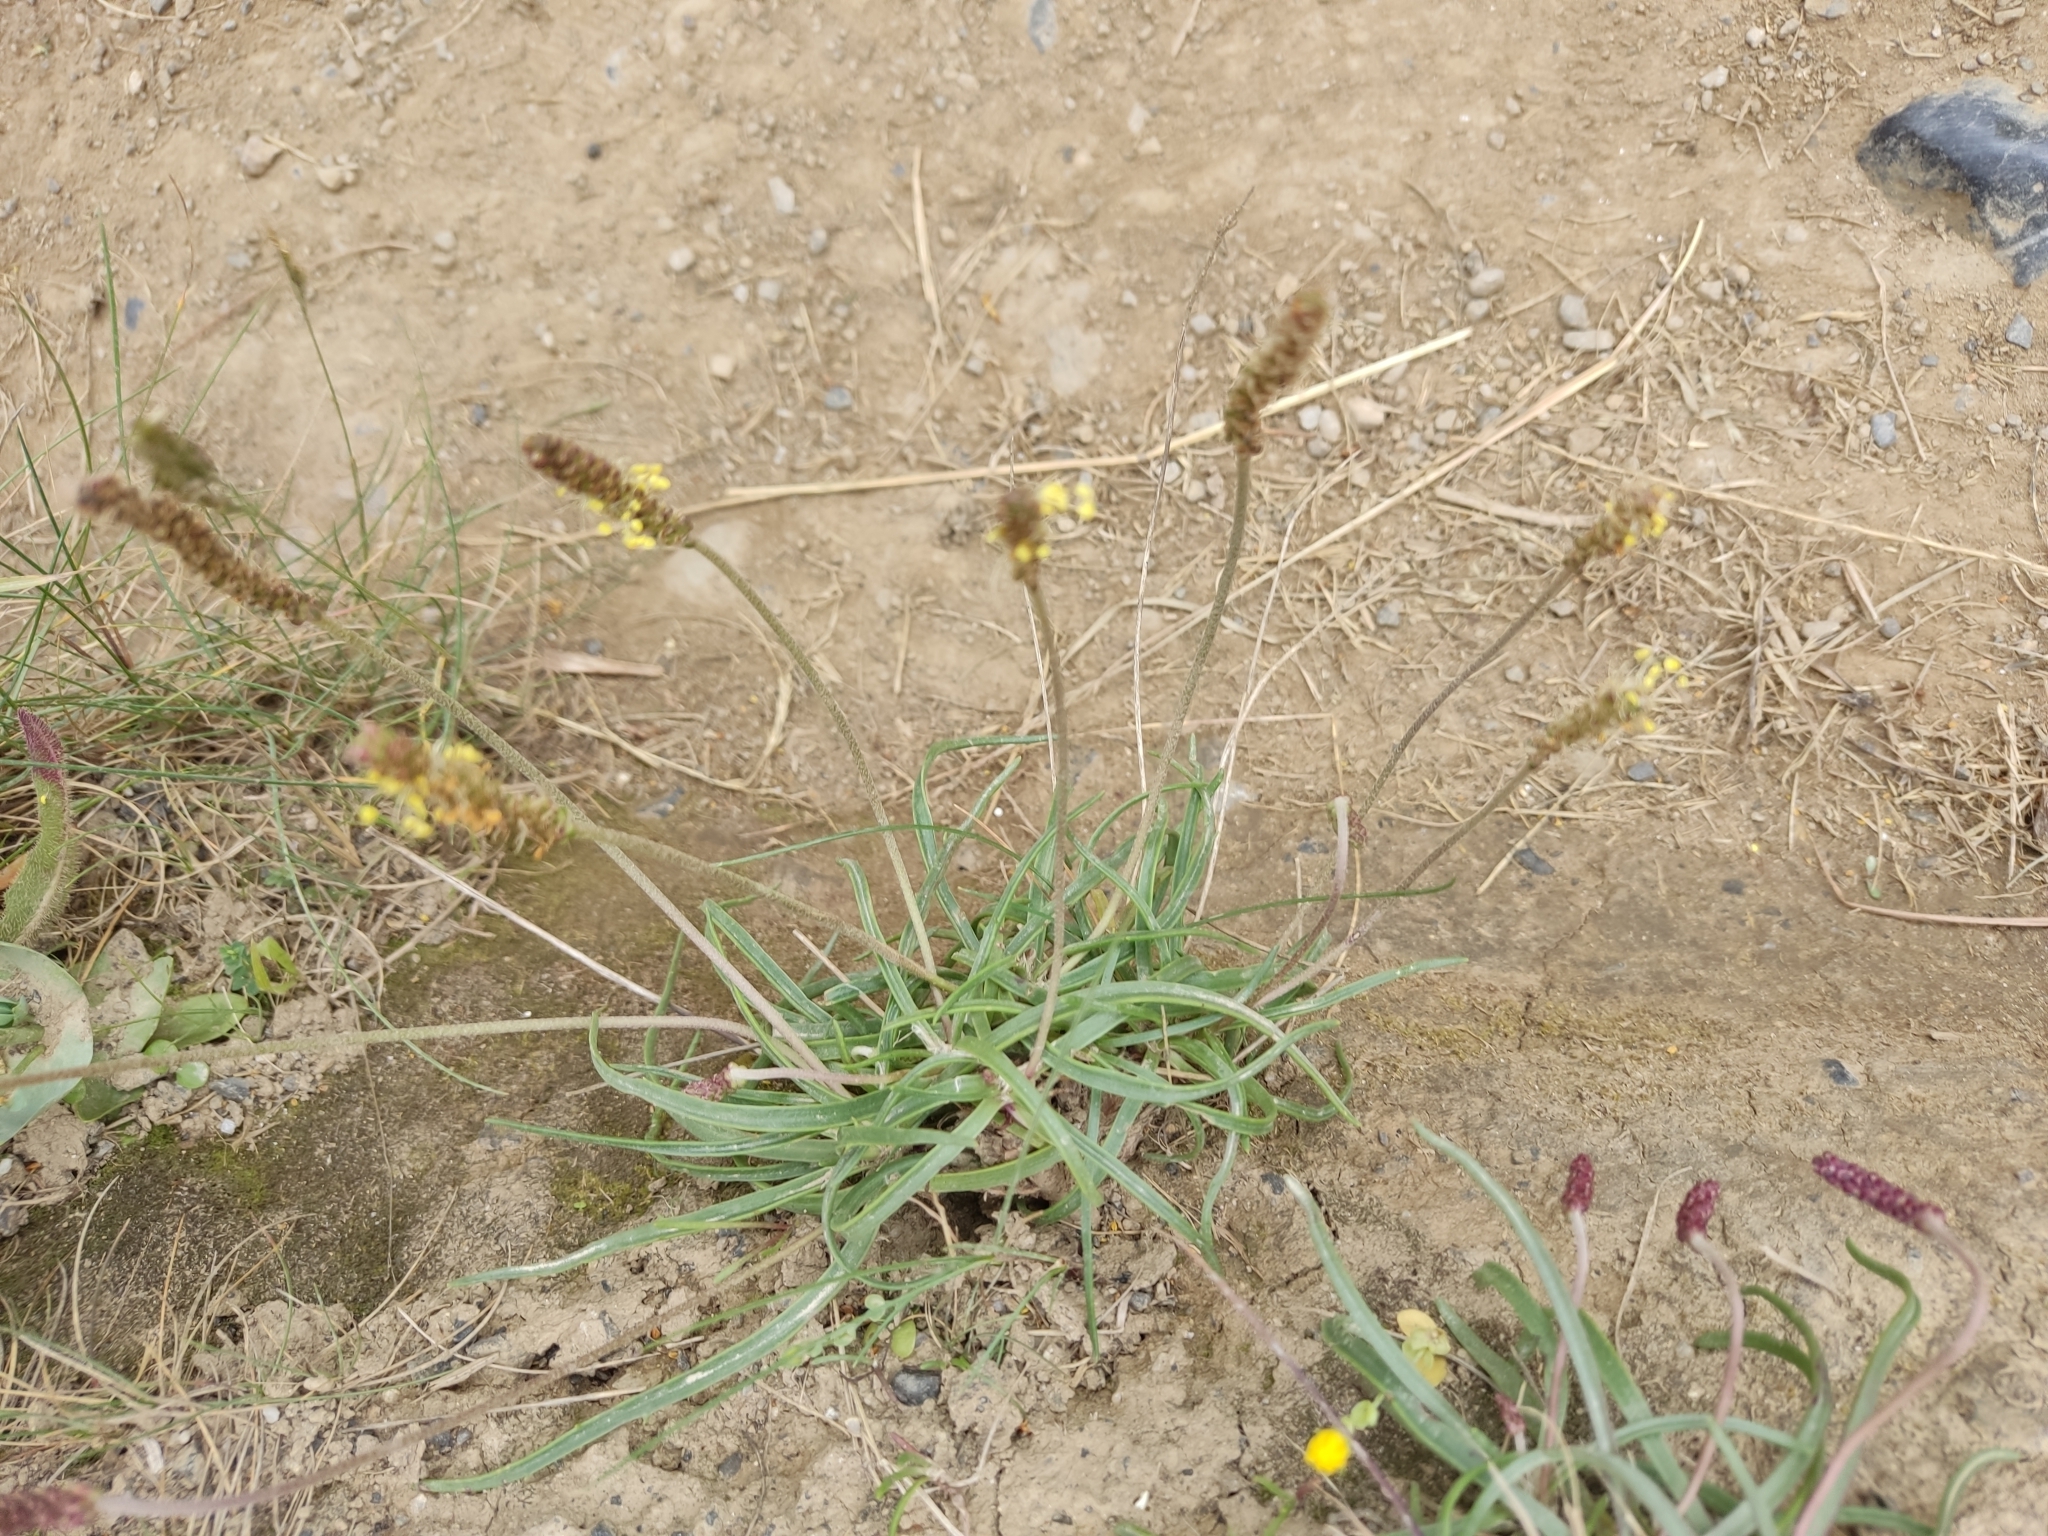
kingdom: Plantae
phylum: Tracheophyta
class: Magnoliopsida
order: Lamiales
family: Plantaginaceae
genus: Plantago
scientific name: Plantago maritima
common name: Sea plantain
